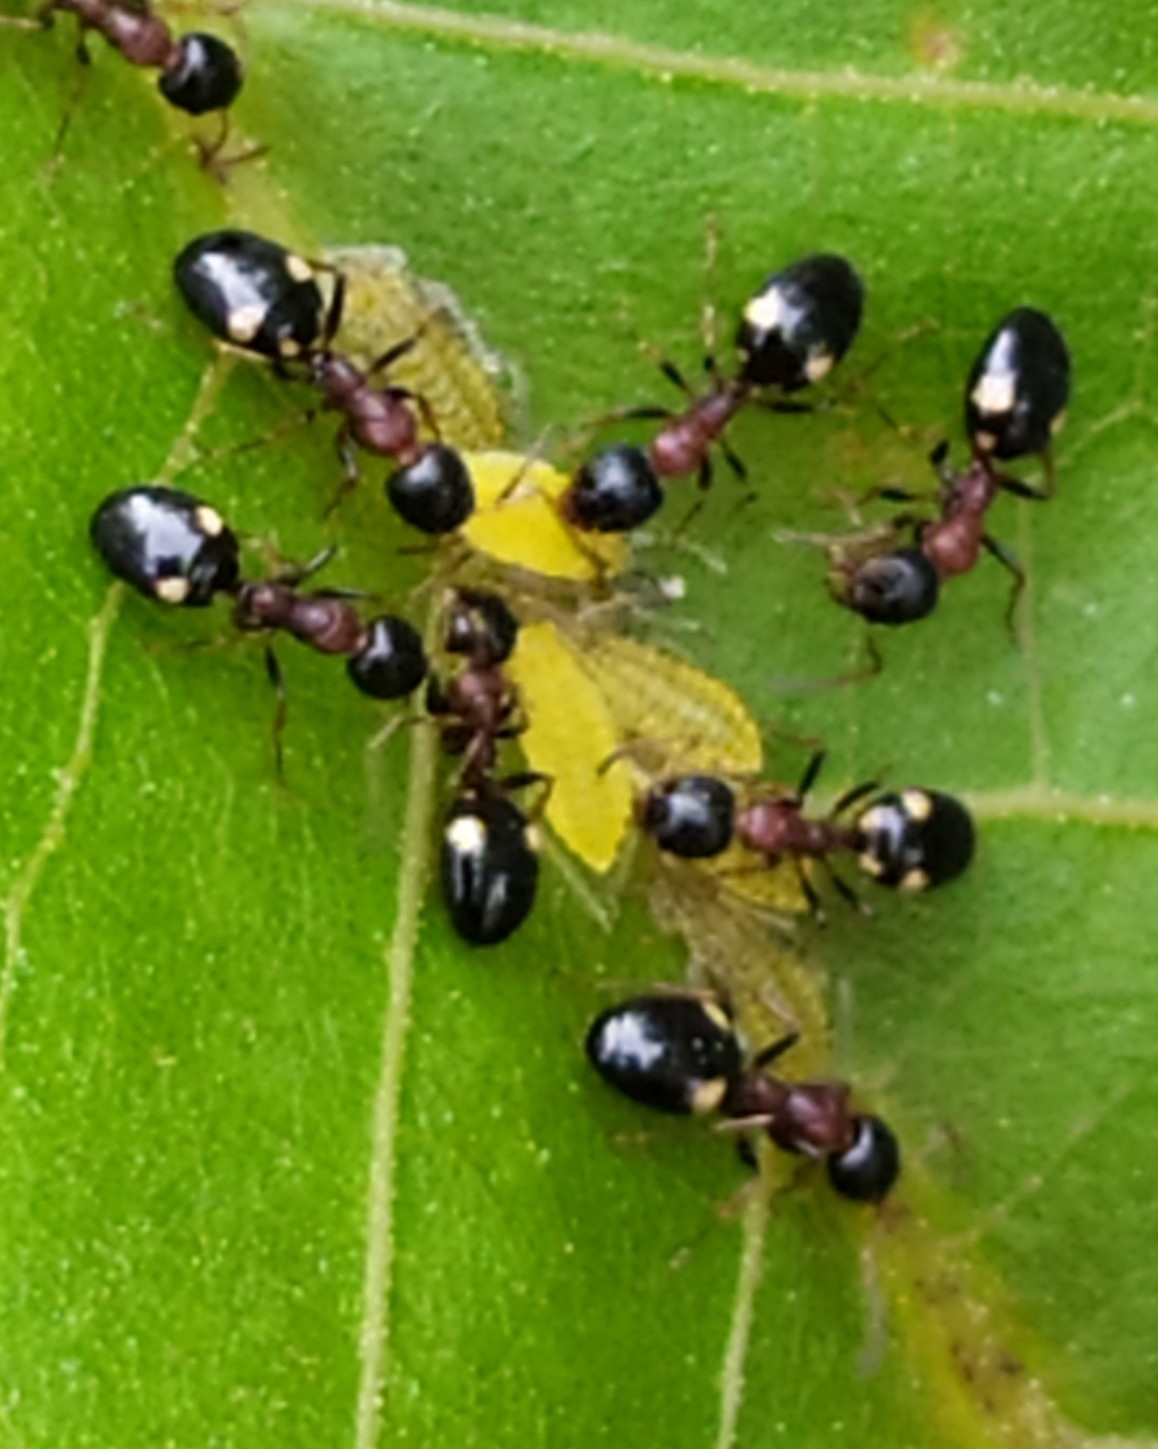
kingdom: Animalia
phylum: Arthropoda
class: Insecta
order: Hymenoptera
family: Formicidae
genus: Dolichoderus
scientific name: Dolichoderus quadripunctatus
